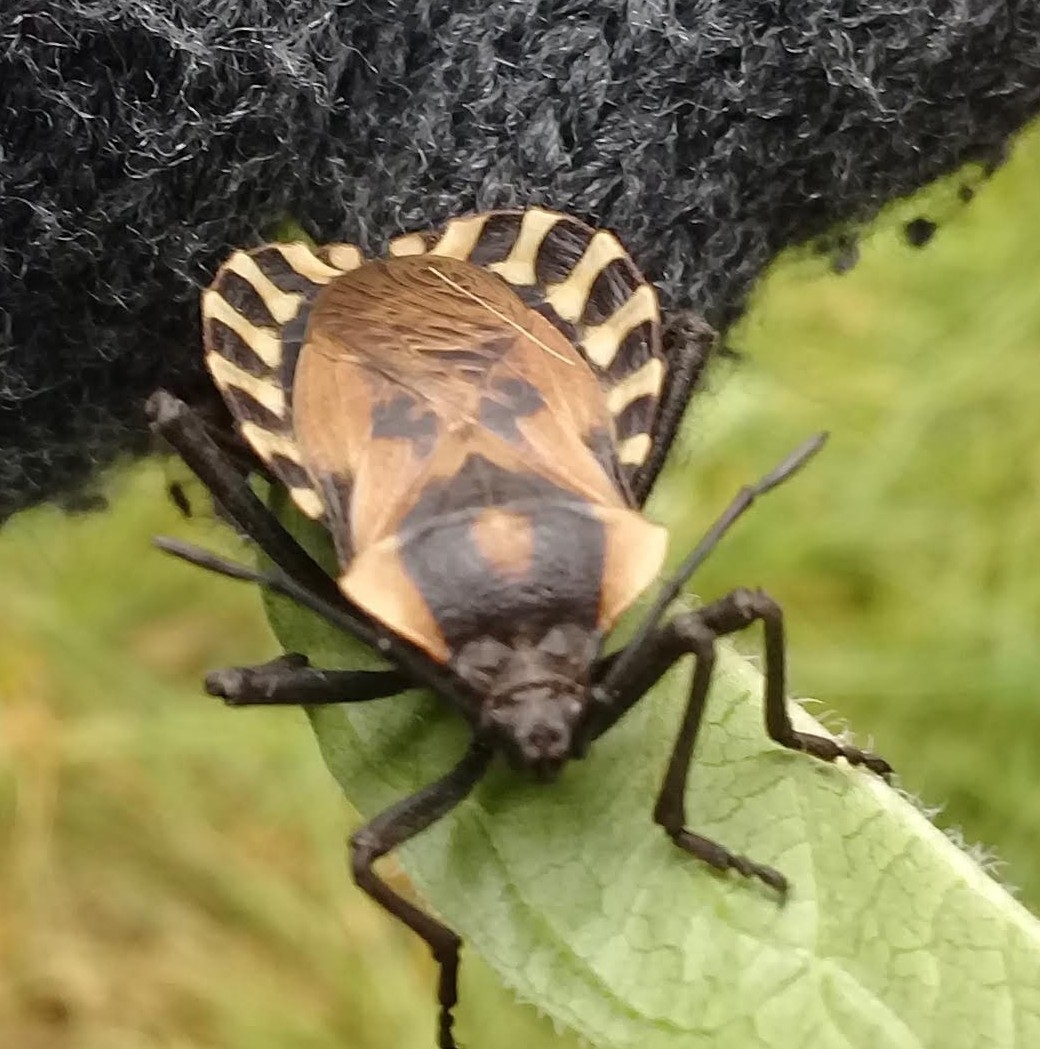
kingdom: Animalia
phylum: Arthropoda
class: Insecta
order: Hemiptera
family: Coreidae
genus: Spartocera
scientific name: Spartocera alternata
